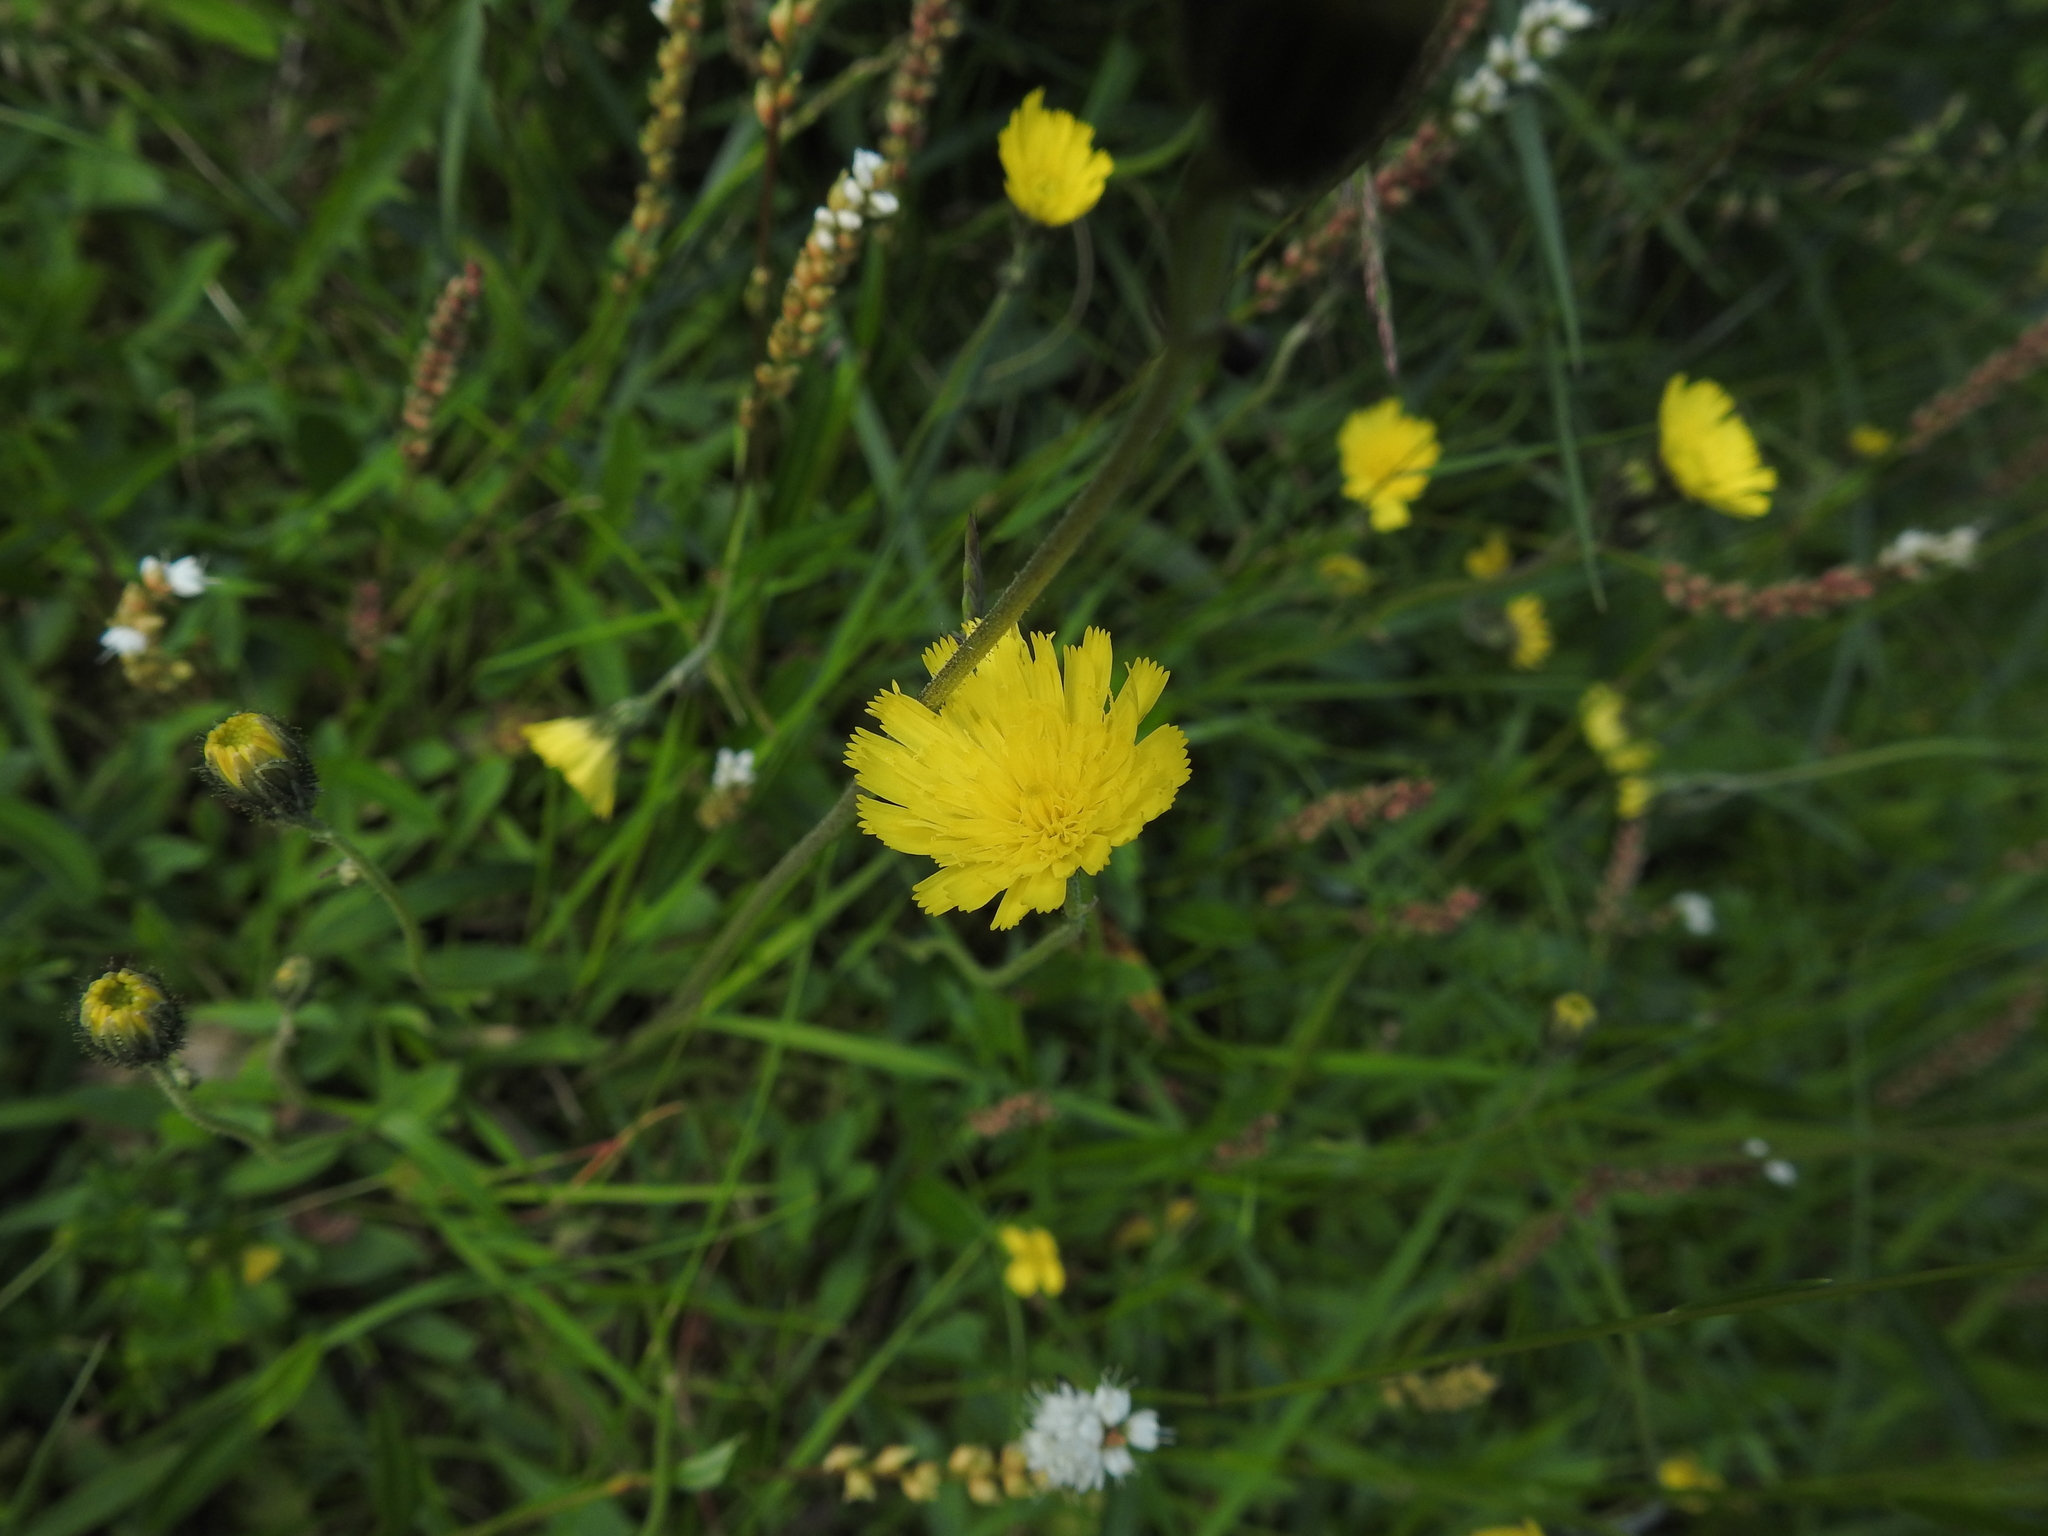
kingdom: Plantae
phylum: Tracheophyta
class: Magnoliopsida
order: Asterales
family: Asteraceae
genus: Hypochaeris
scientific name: Hypochaeris radicata
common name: Flatweed
